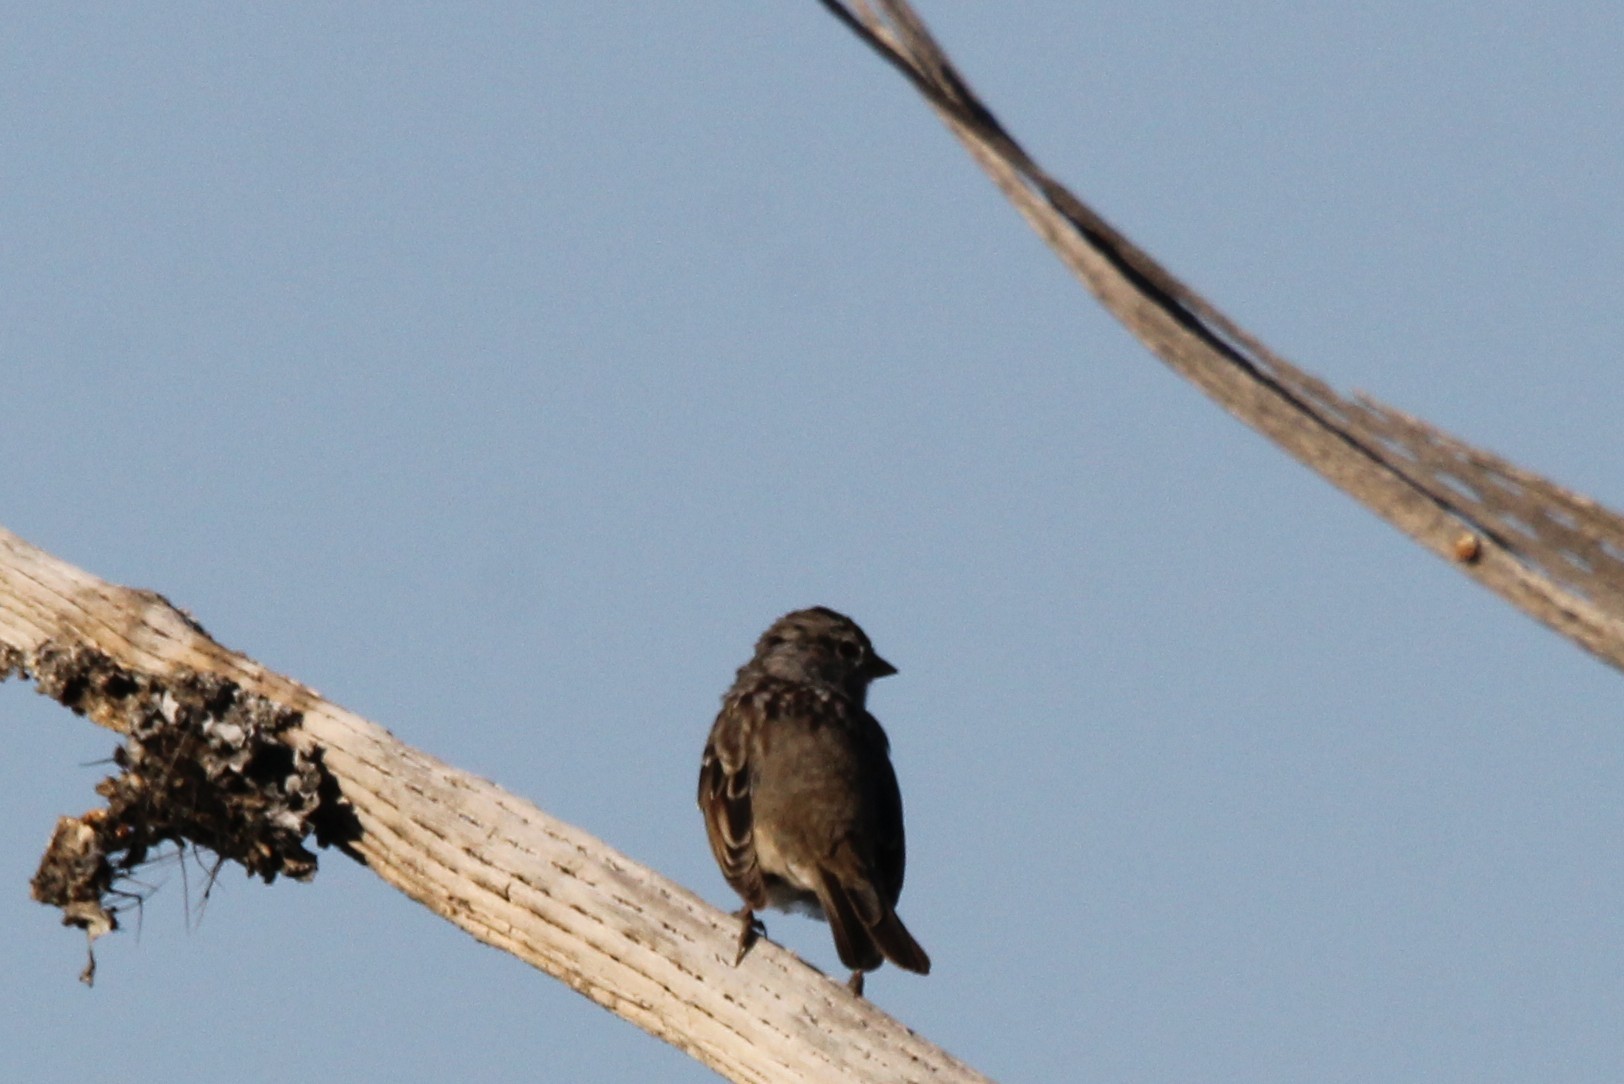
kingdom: Animalia
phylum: Chordata
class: Aves
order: Passeriformes
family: Passerellidae
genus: Zonotrichia
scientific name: Zonotrichia leucophrys
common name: White-crowned sparrow
